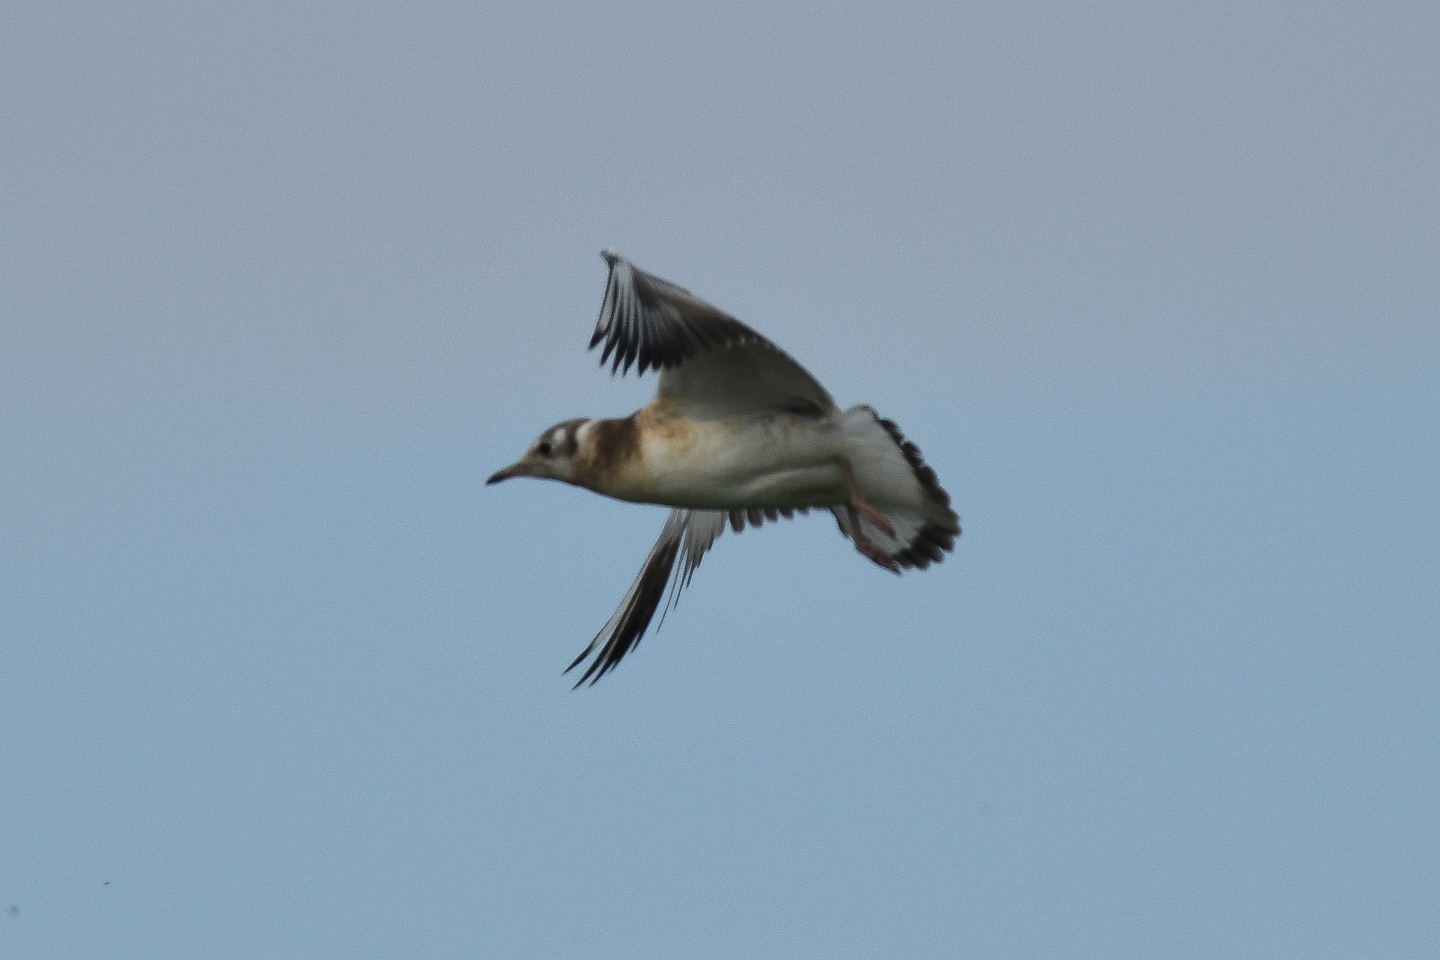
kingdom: Animalia
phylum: Chordata
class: Aves
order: Charadriiformes
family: Laridae
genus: Chroicocephalus
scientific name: Chroicocephalus ridibundus
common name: Black-headed gull
